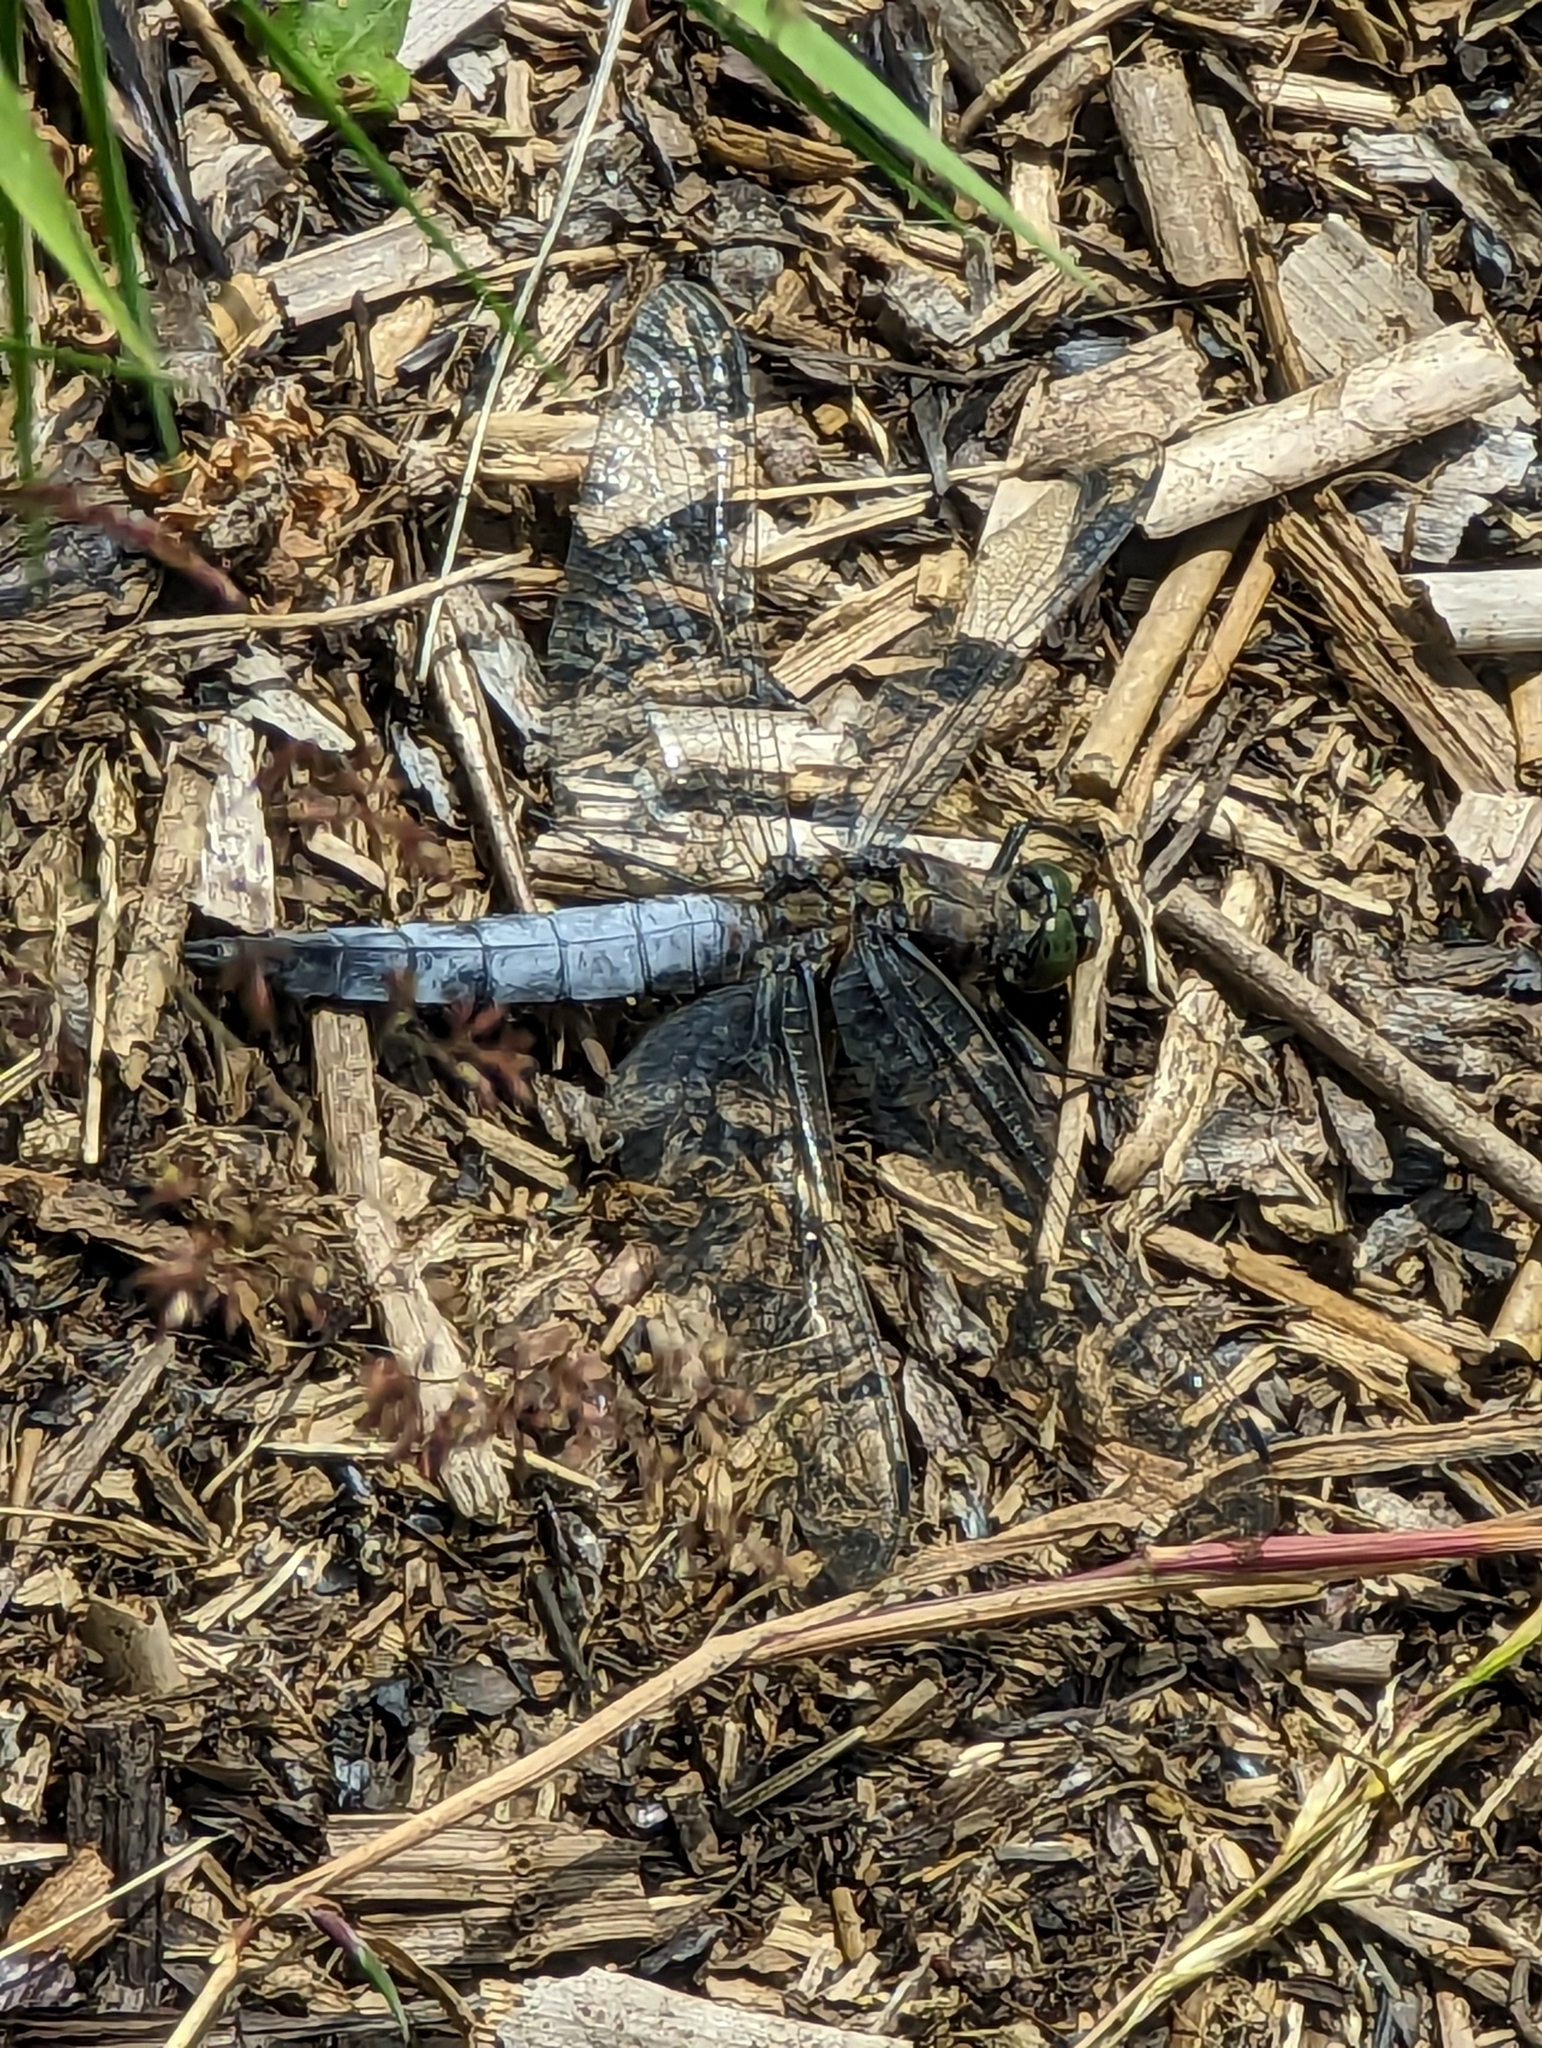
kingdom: Animalia
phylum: Arthropoda
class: Insecta
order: Odonata
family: Libellulidae
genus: Orthetrum
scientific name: Orthetrum cancellatum
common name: Black-tailed skimmer
